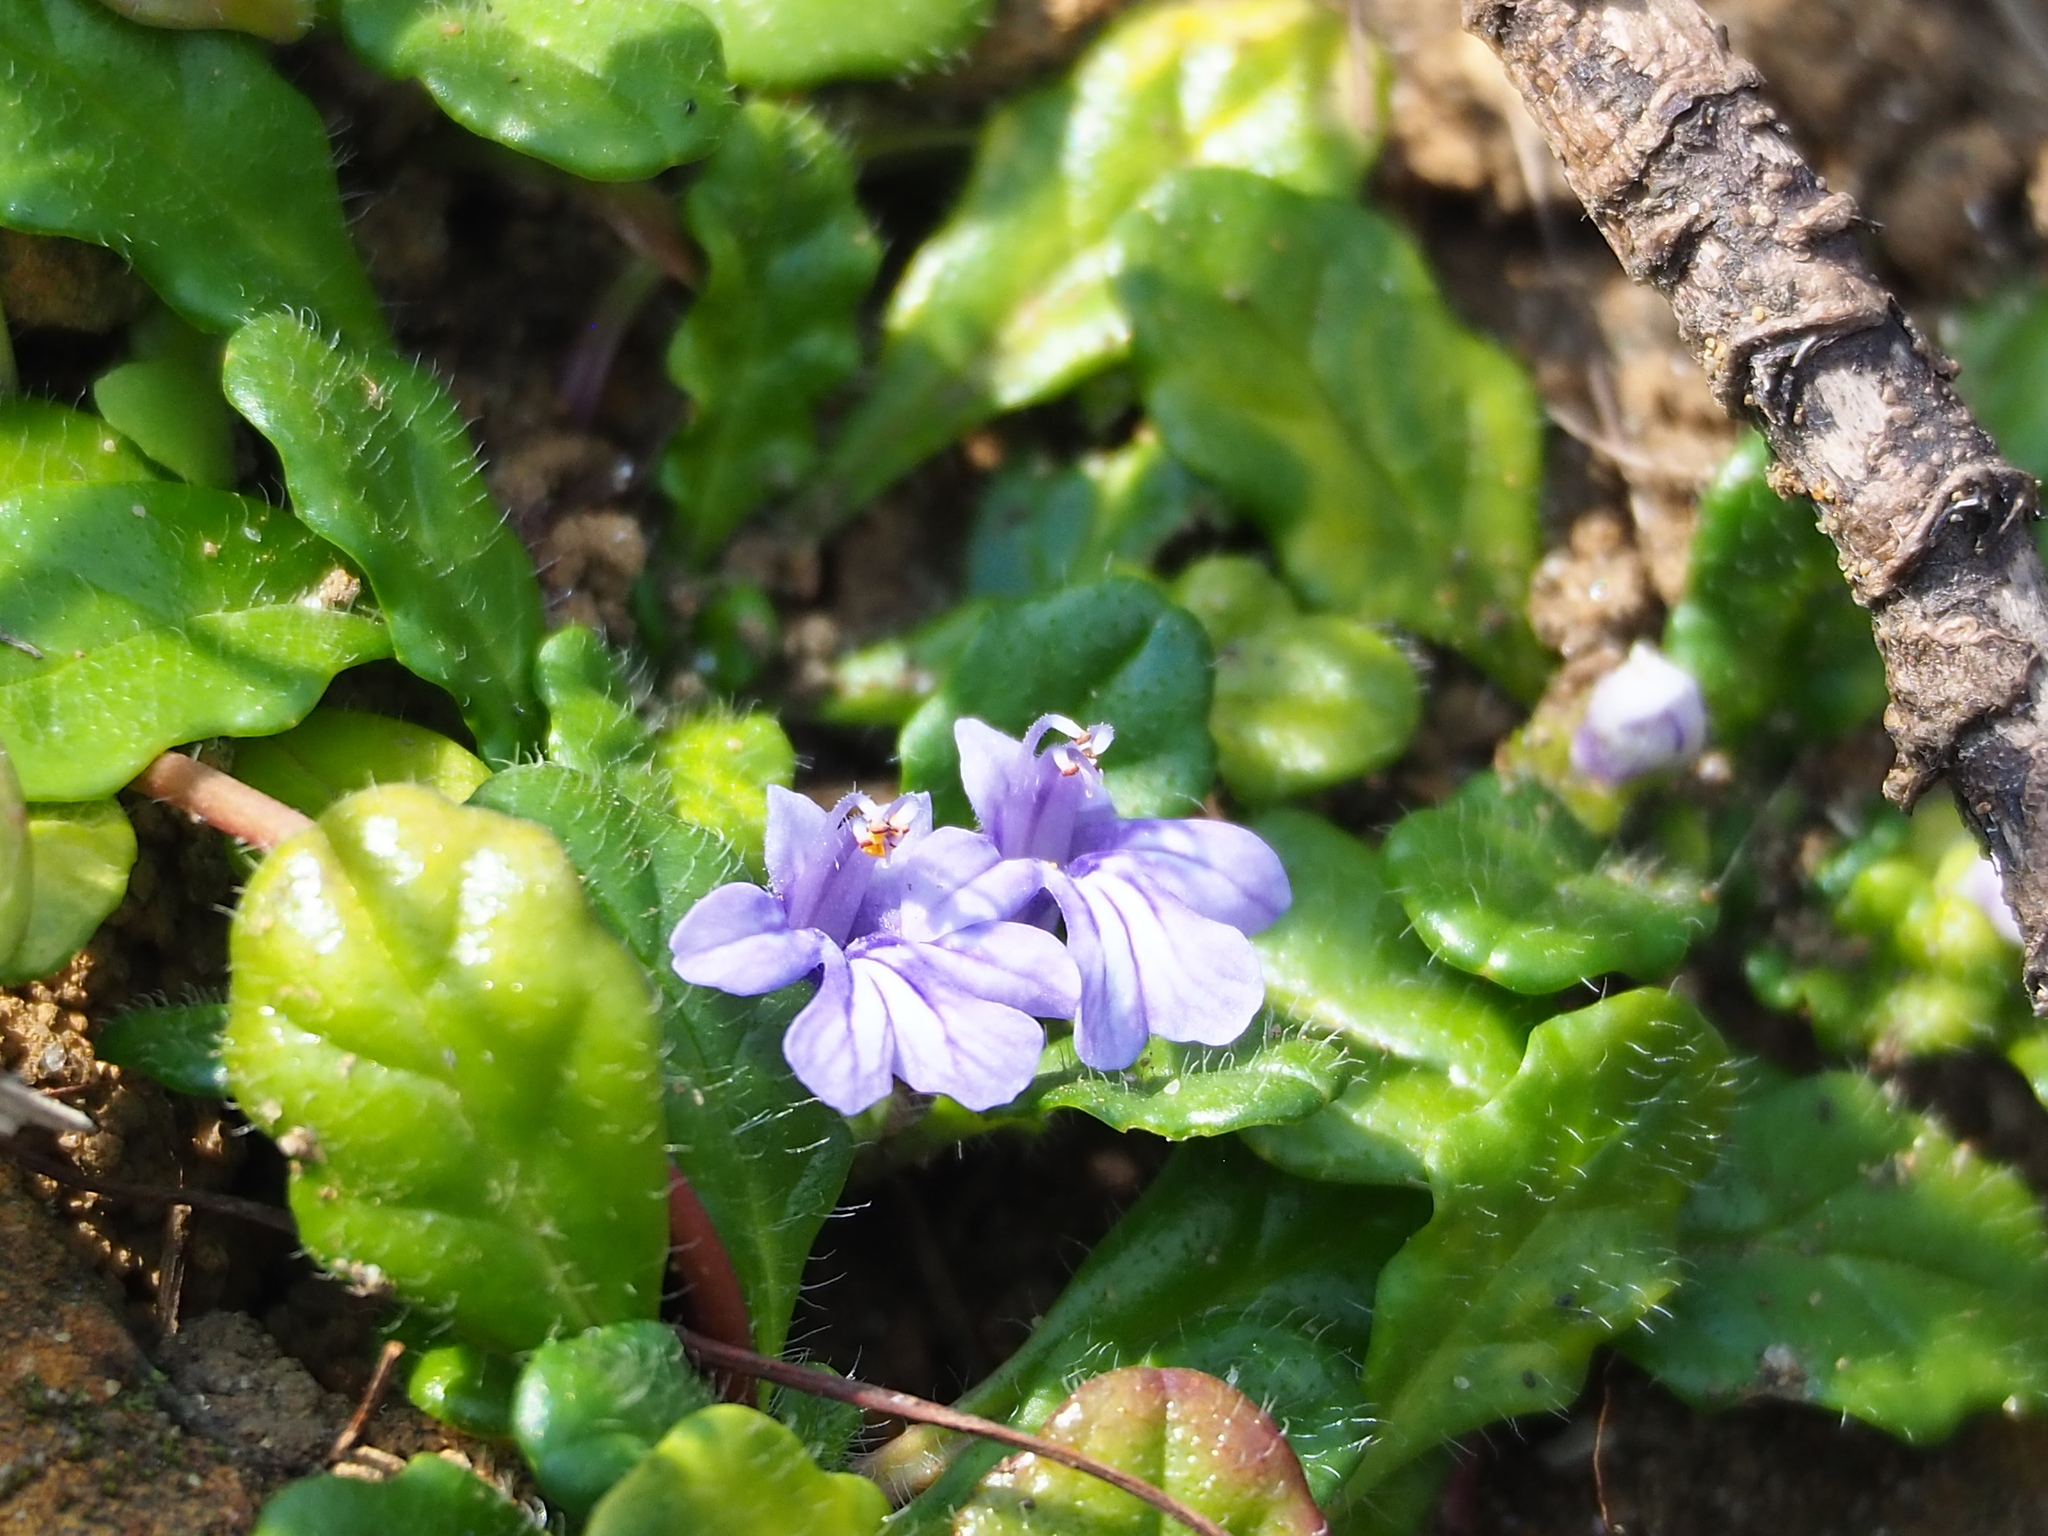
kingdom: Plantae
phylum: Tracheophyta
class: Magnoliopsida
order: Lamiales
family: Lamiaceae
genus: Ajuga
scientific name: Ajuga pygmaea
